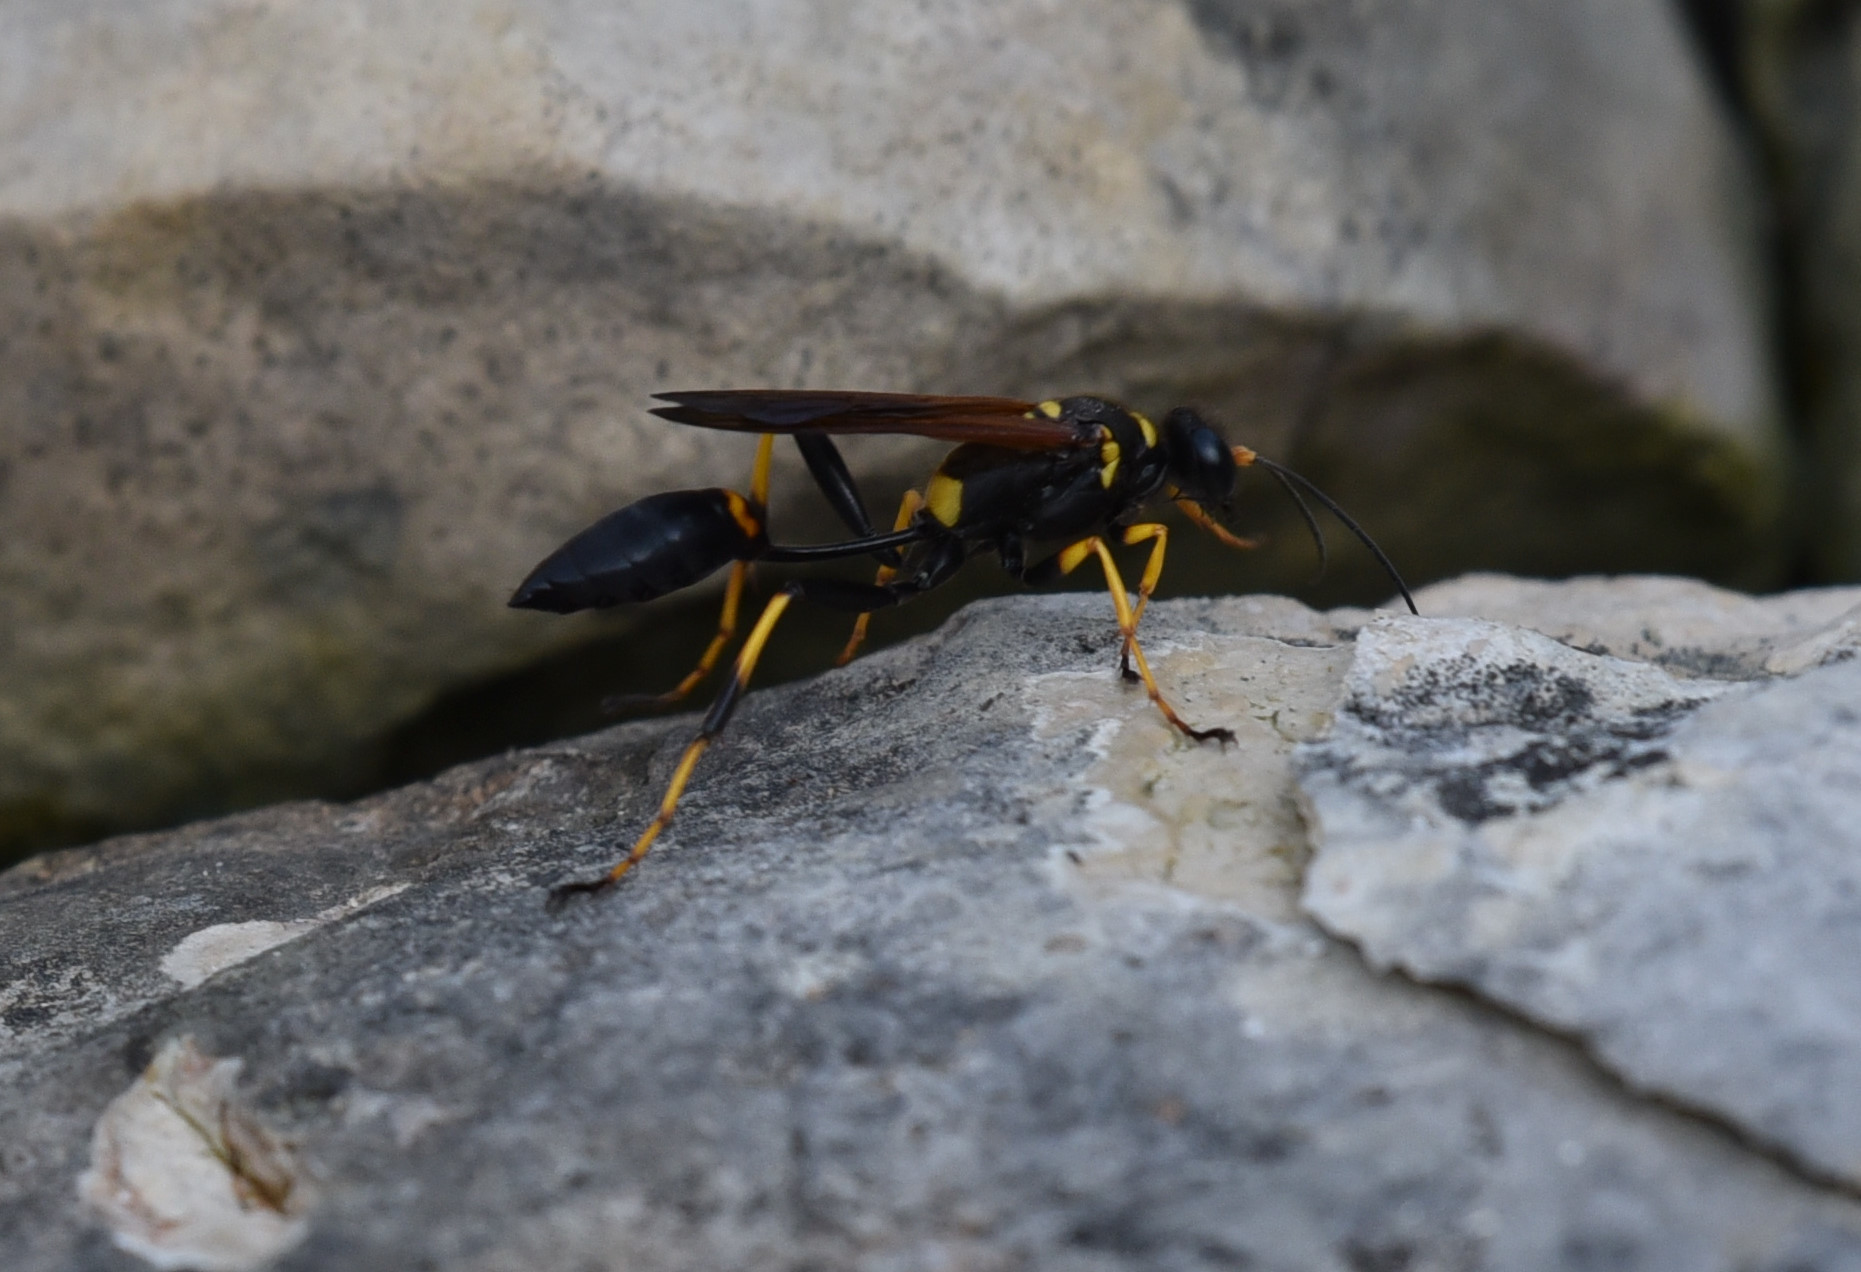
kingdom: Animalia
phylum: Arthropoda
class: Insecta
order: Hymenoptera
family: Sphecidae
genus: Sceliphron
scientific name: Sceliphron caementarium
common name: Mud dauber
